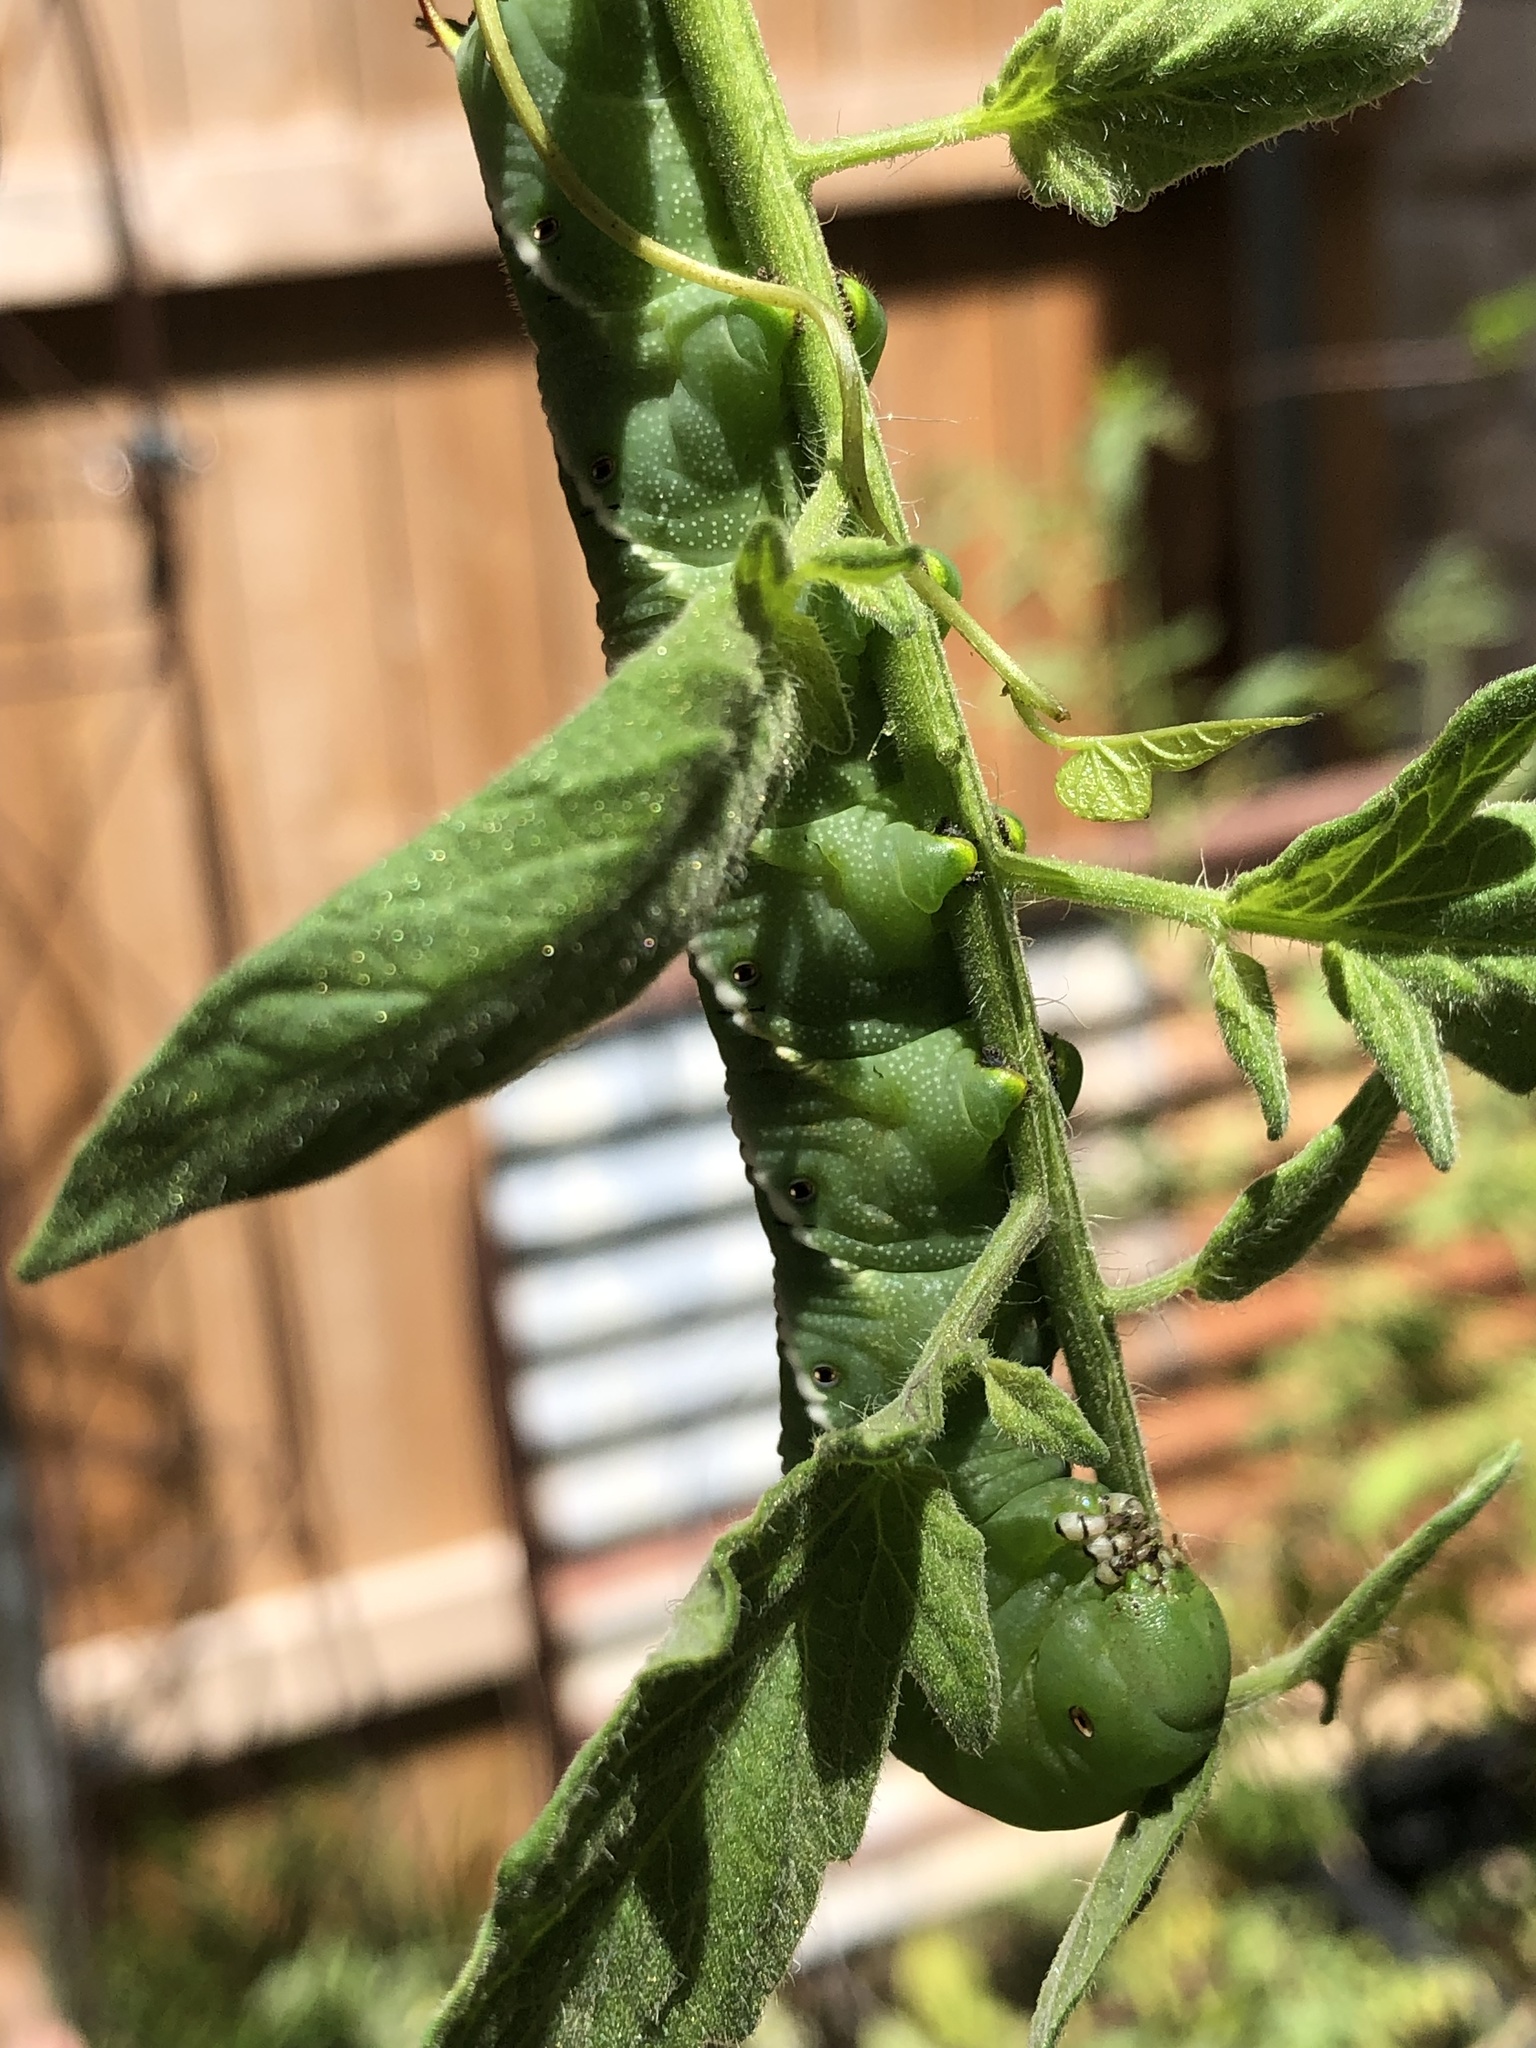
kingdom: Animalia
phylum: Arthropoda
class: Insecta
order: Lepidoptera
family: Sphingidae
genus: Manduca
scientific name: Manduca sexta
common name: Carolina sphinx
